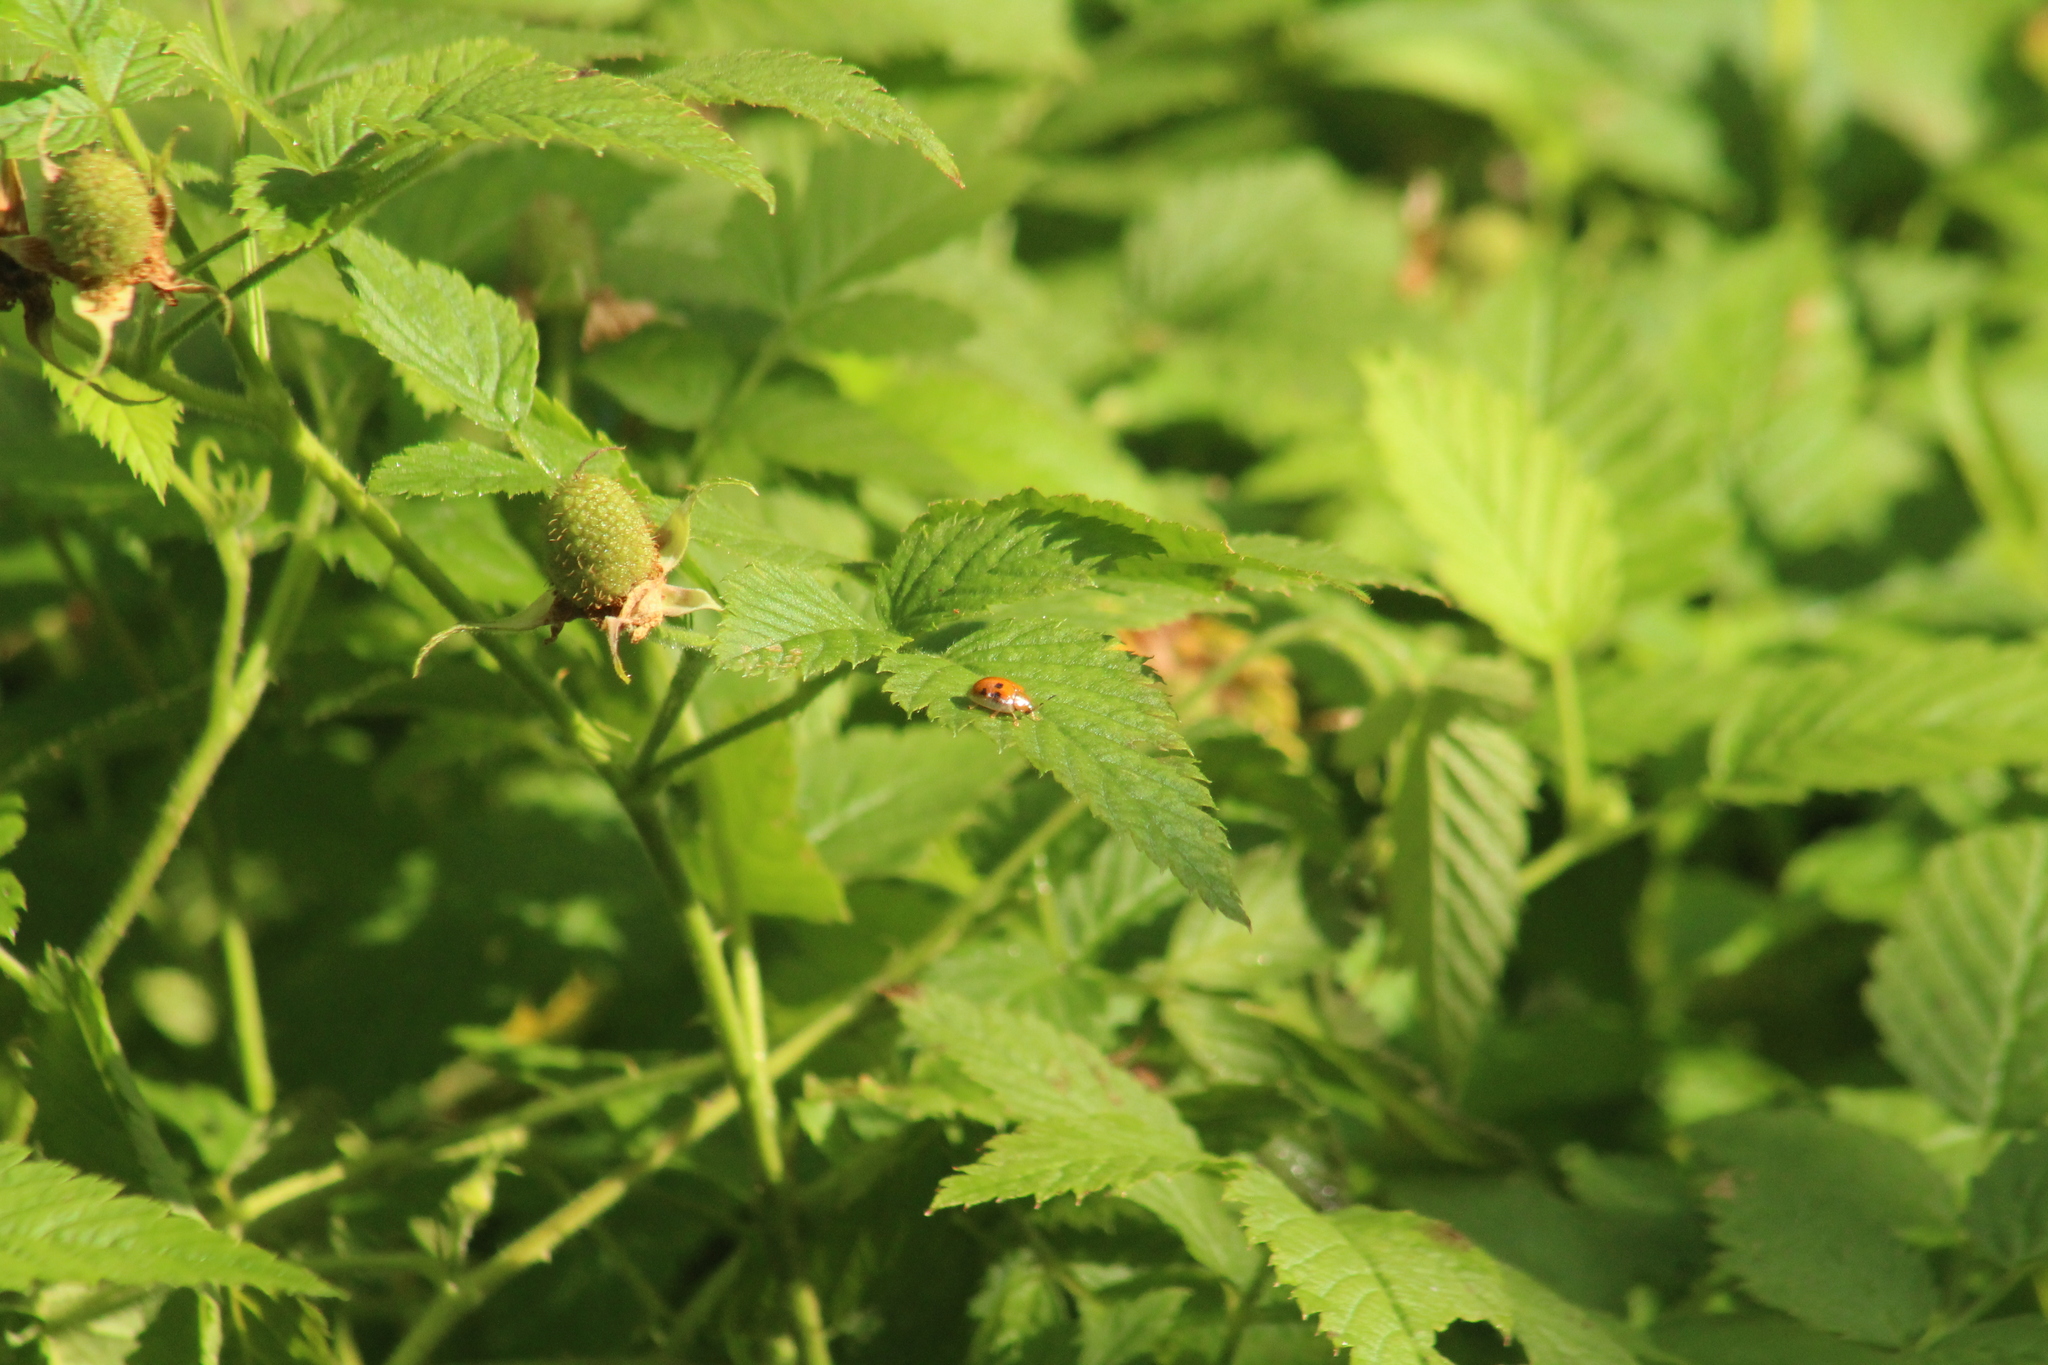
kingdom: Animalia
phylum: Arthropoda
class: Insecta
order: Coleoptera
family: Chrysomelidae
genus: Charidotella
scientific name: Charidotella sexpunctata
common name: Golden tortoise beetle
